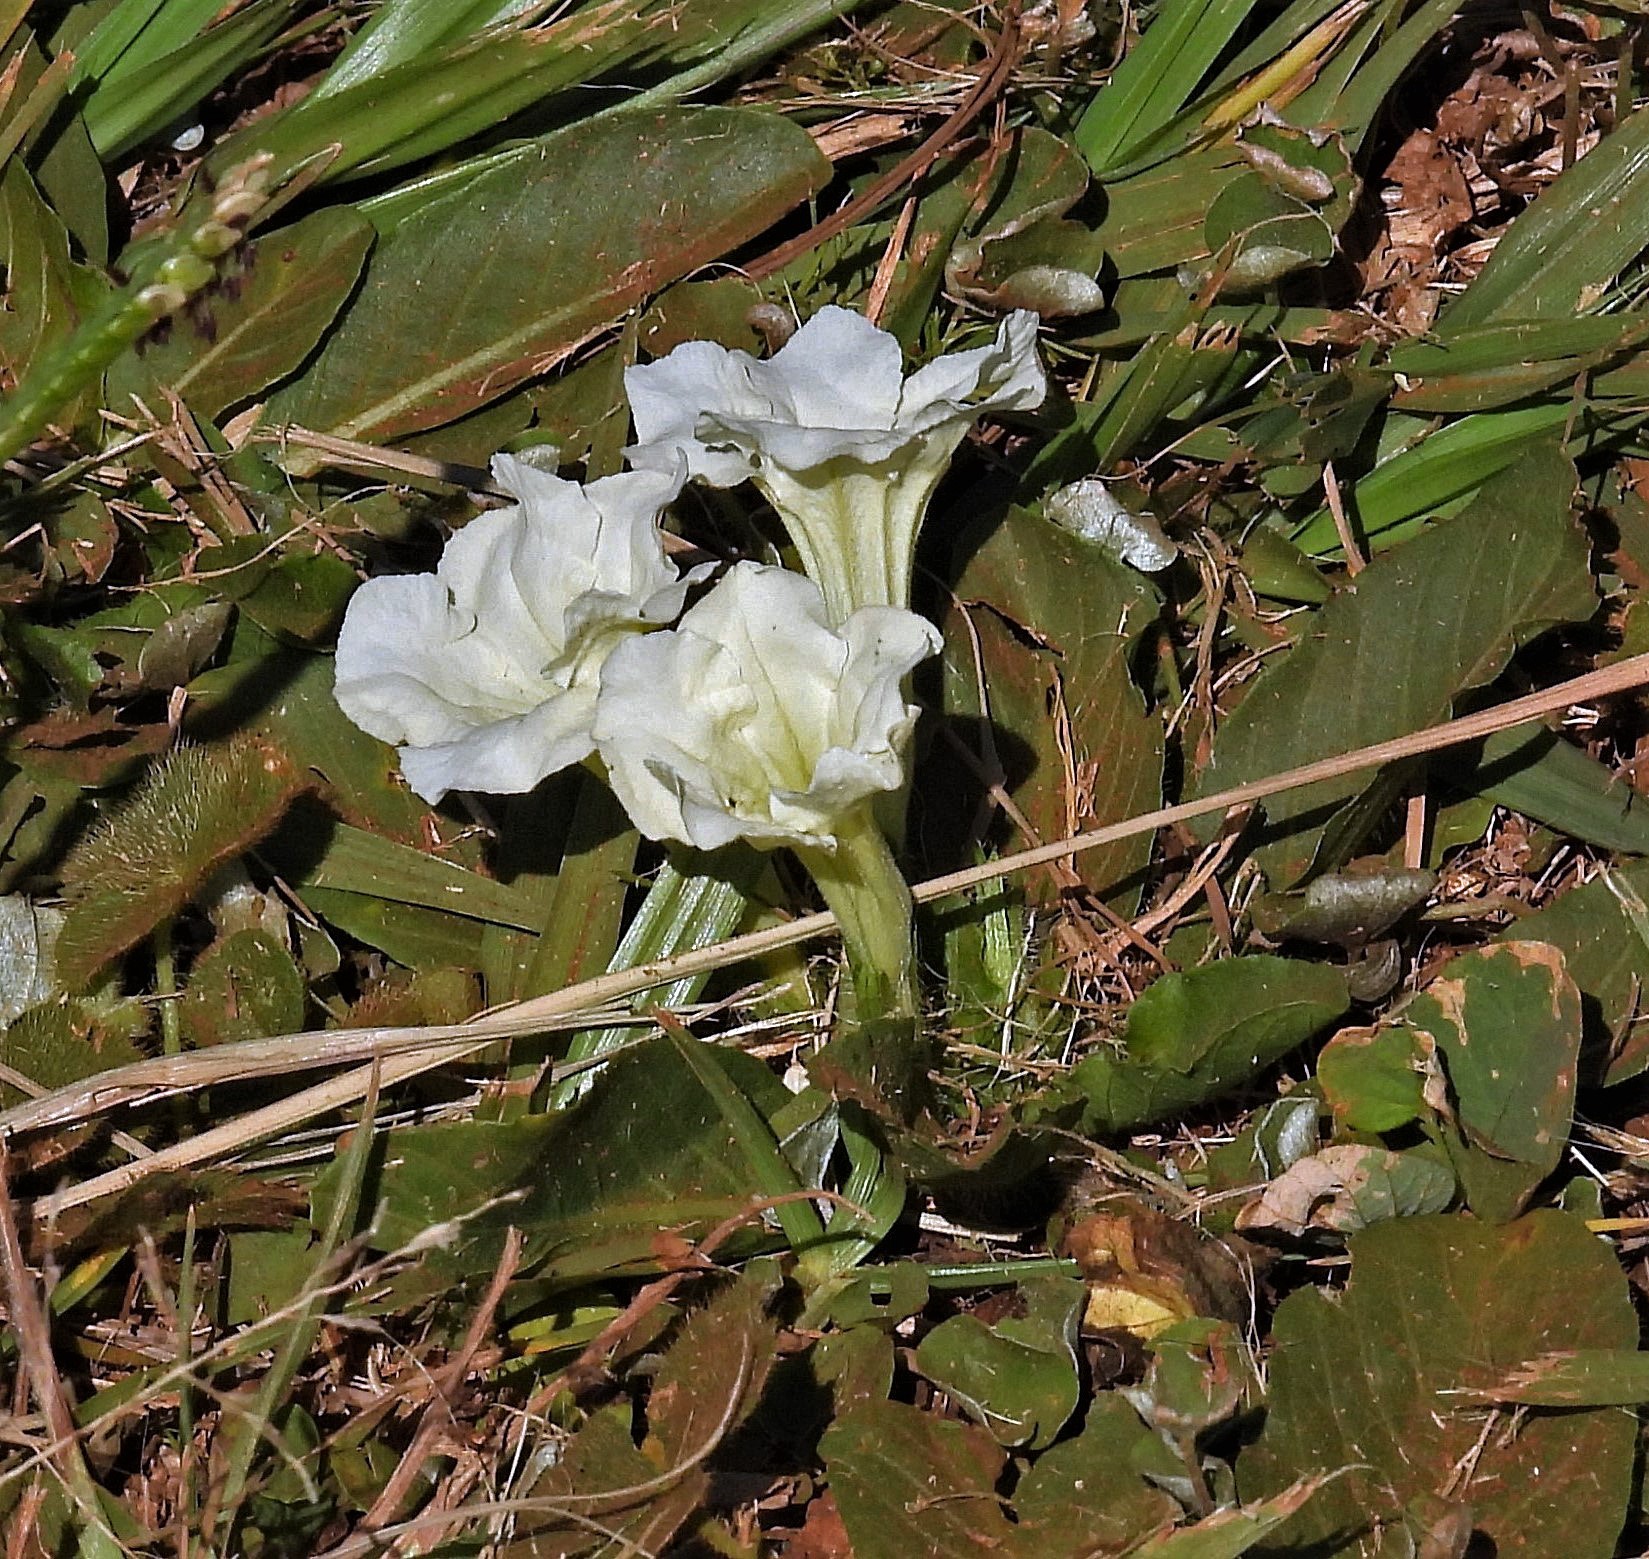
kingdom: Plantae
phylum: Tracheophyta
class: Magnoliopsida
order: Lamiales
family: Acanthaceae
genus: Ruellia
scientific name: Ruellia morongii
